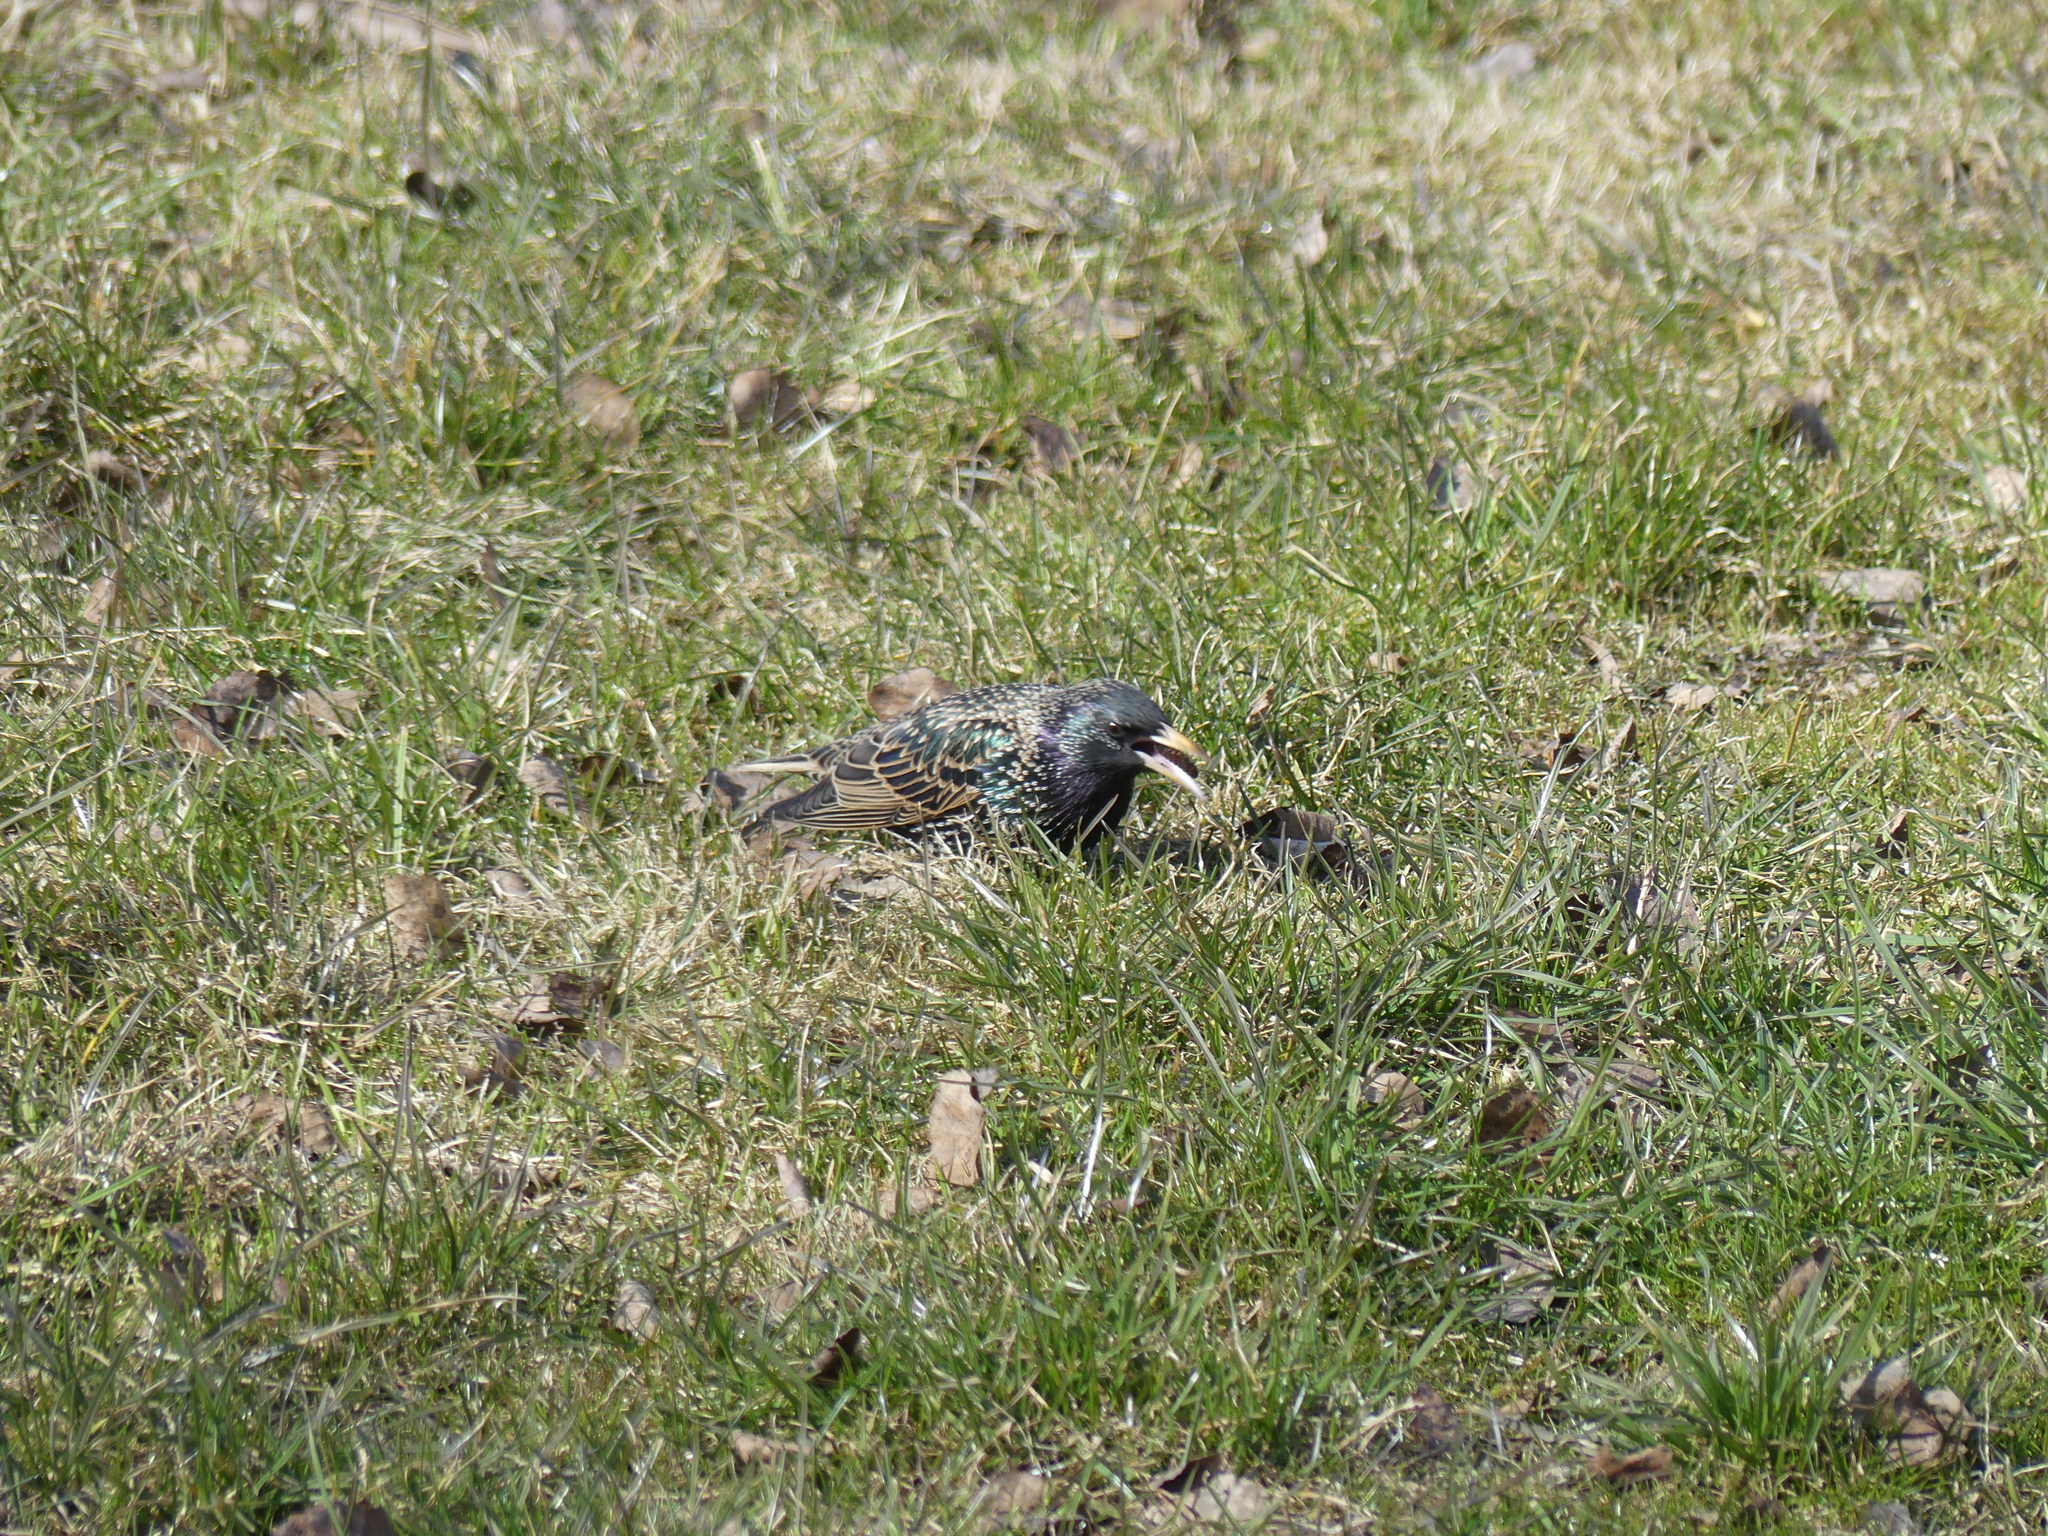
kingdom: Animalia
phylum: Chordata
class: Aves
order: Passeriformes
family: Sturnidae
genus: Sturnus
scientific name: Sturnus vulgaris
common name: Common starling
